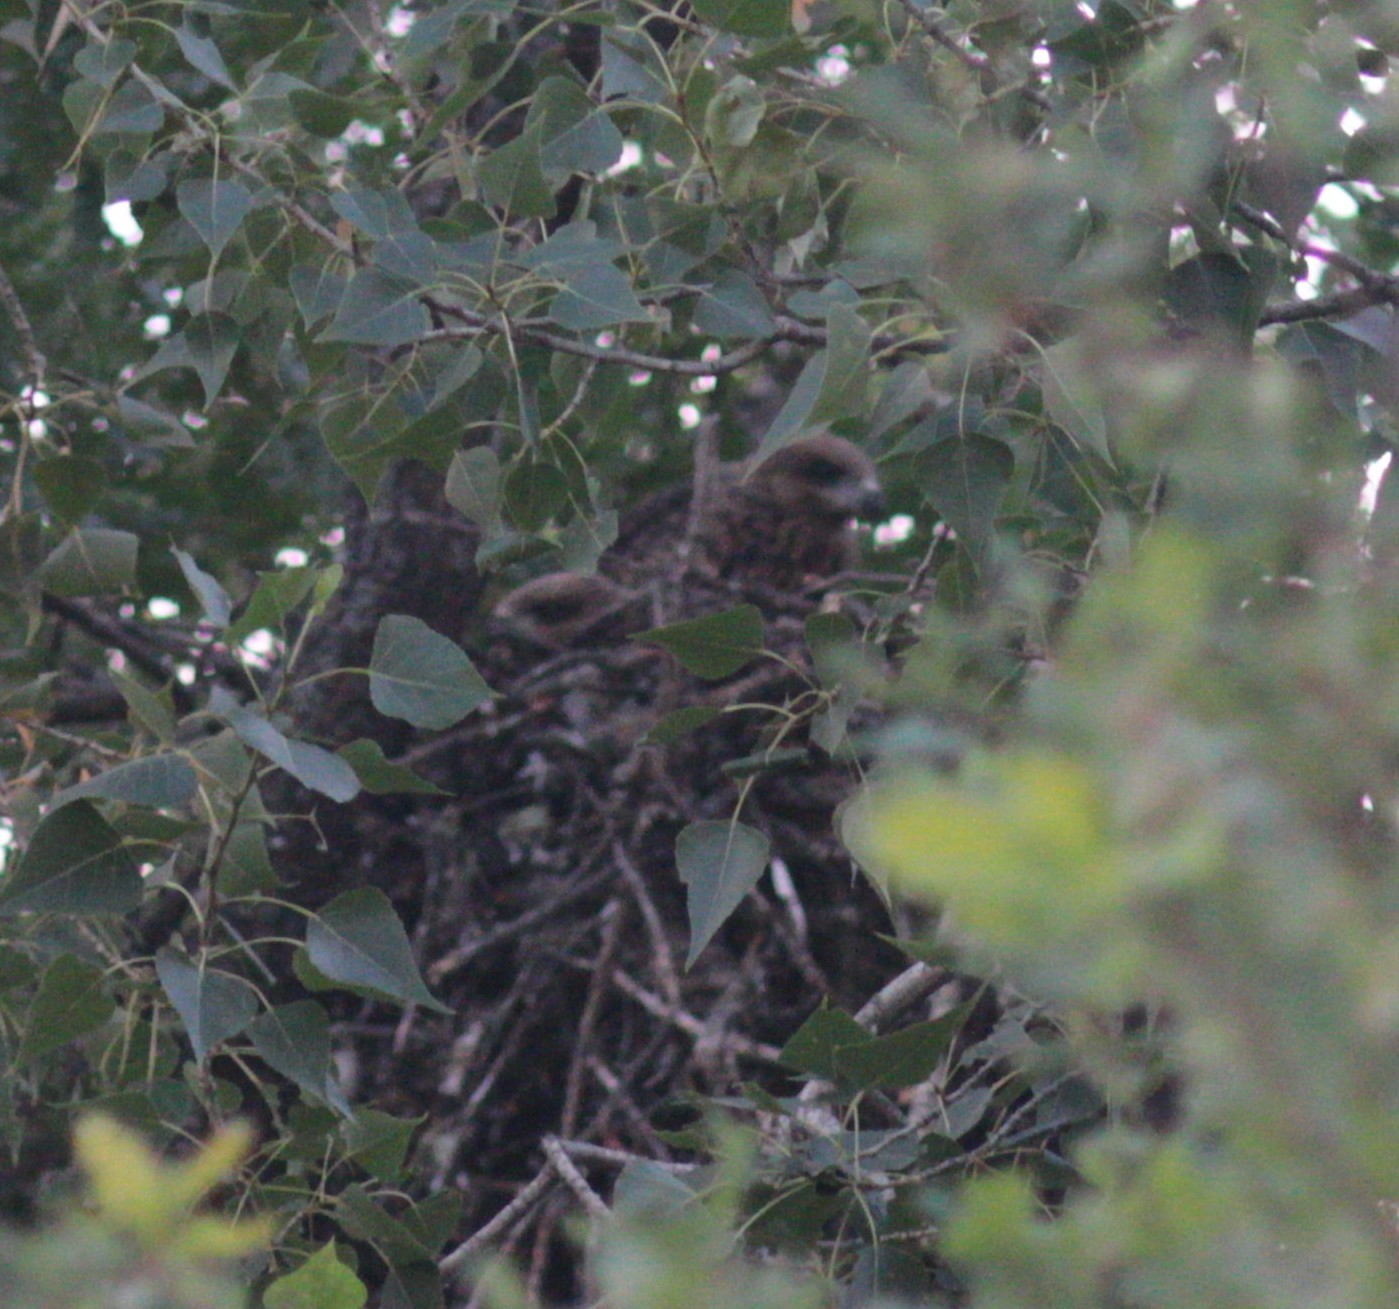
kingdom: Animalia
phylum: Chordata
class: Aves
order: Accipitriformes
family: Accipitridae
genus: Milvus
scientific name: Milvus migrans
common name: Black kite
